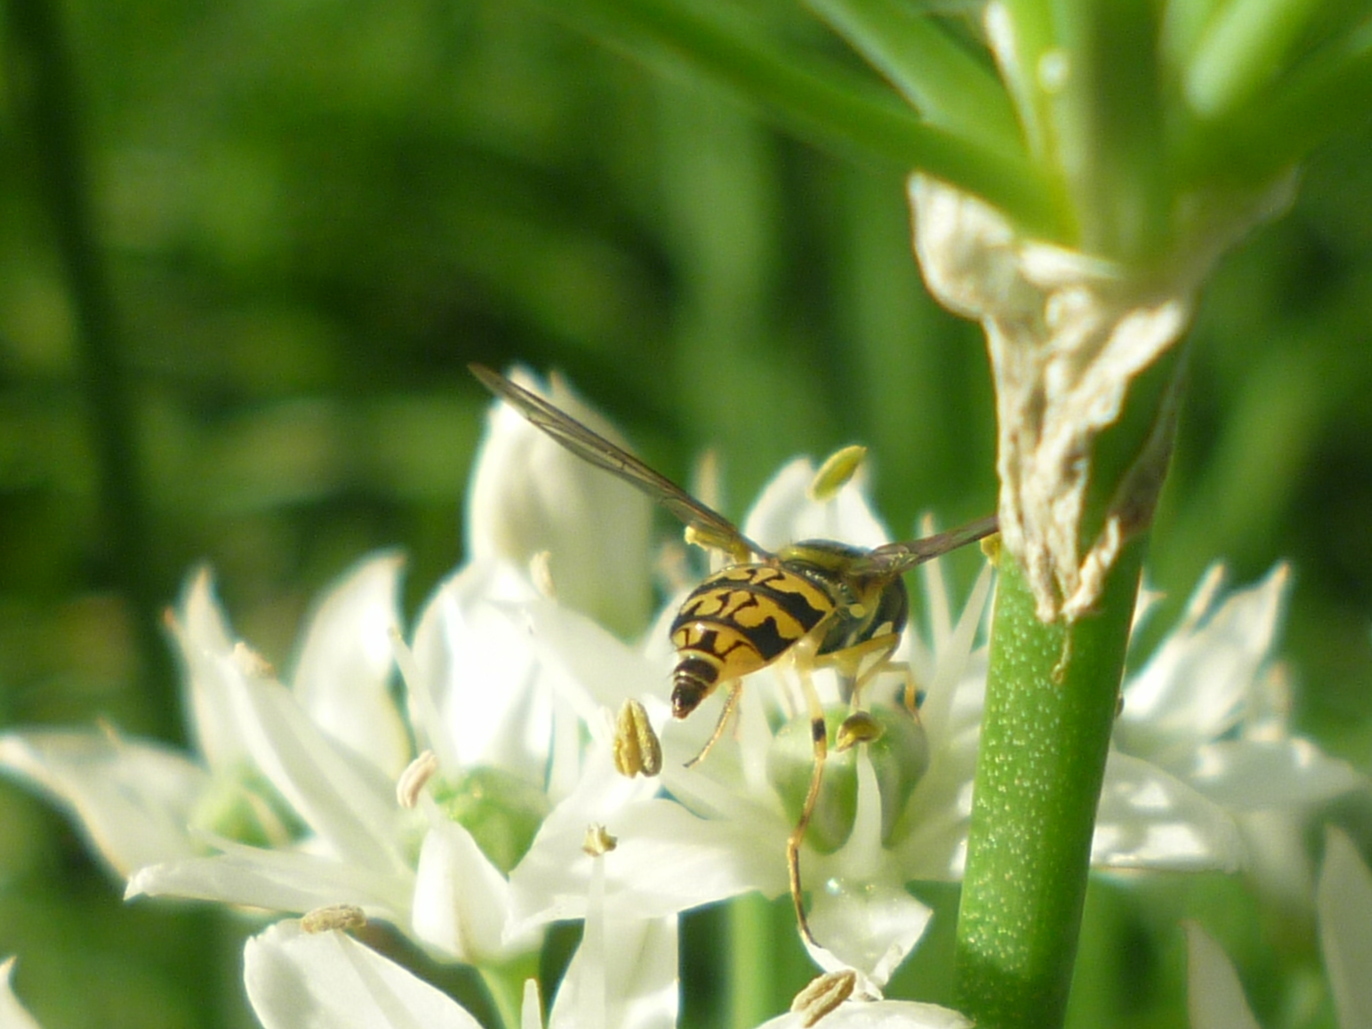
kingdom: Animalia
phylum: Arthropoda
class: Insecta
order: Diptera
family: Syrphidae
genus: Toxomerus
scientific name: Toxomerus geminatus
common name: Eastern calligrapher
